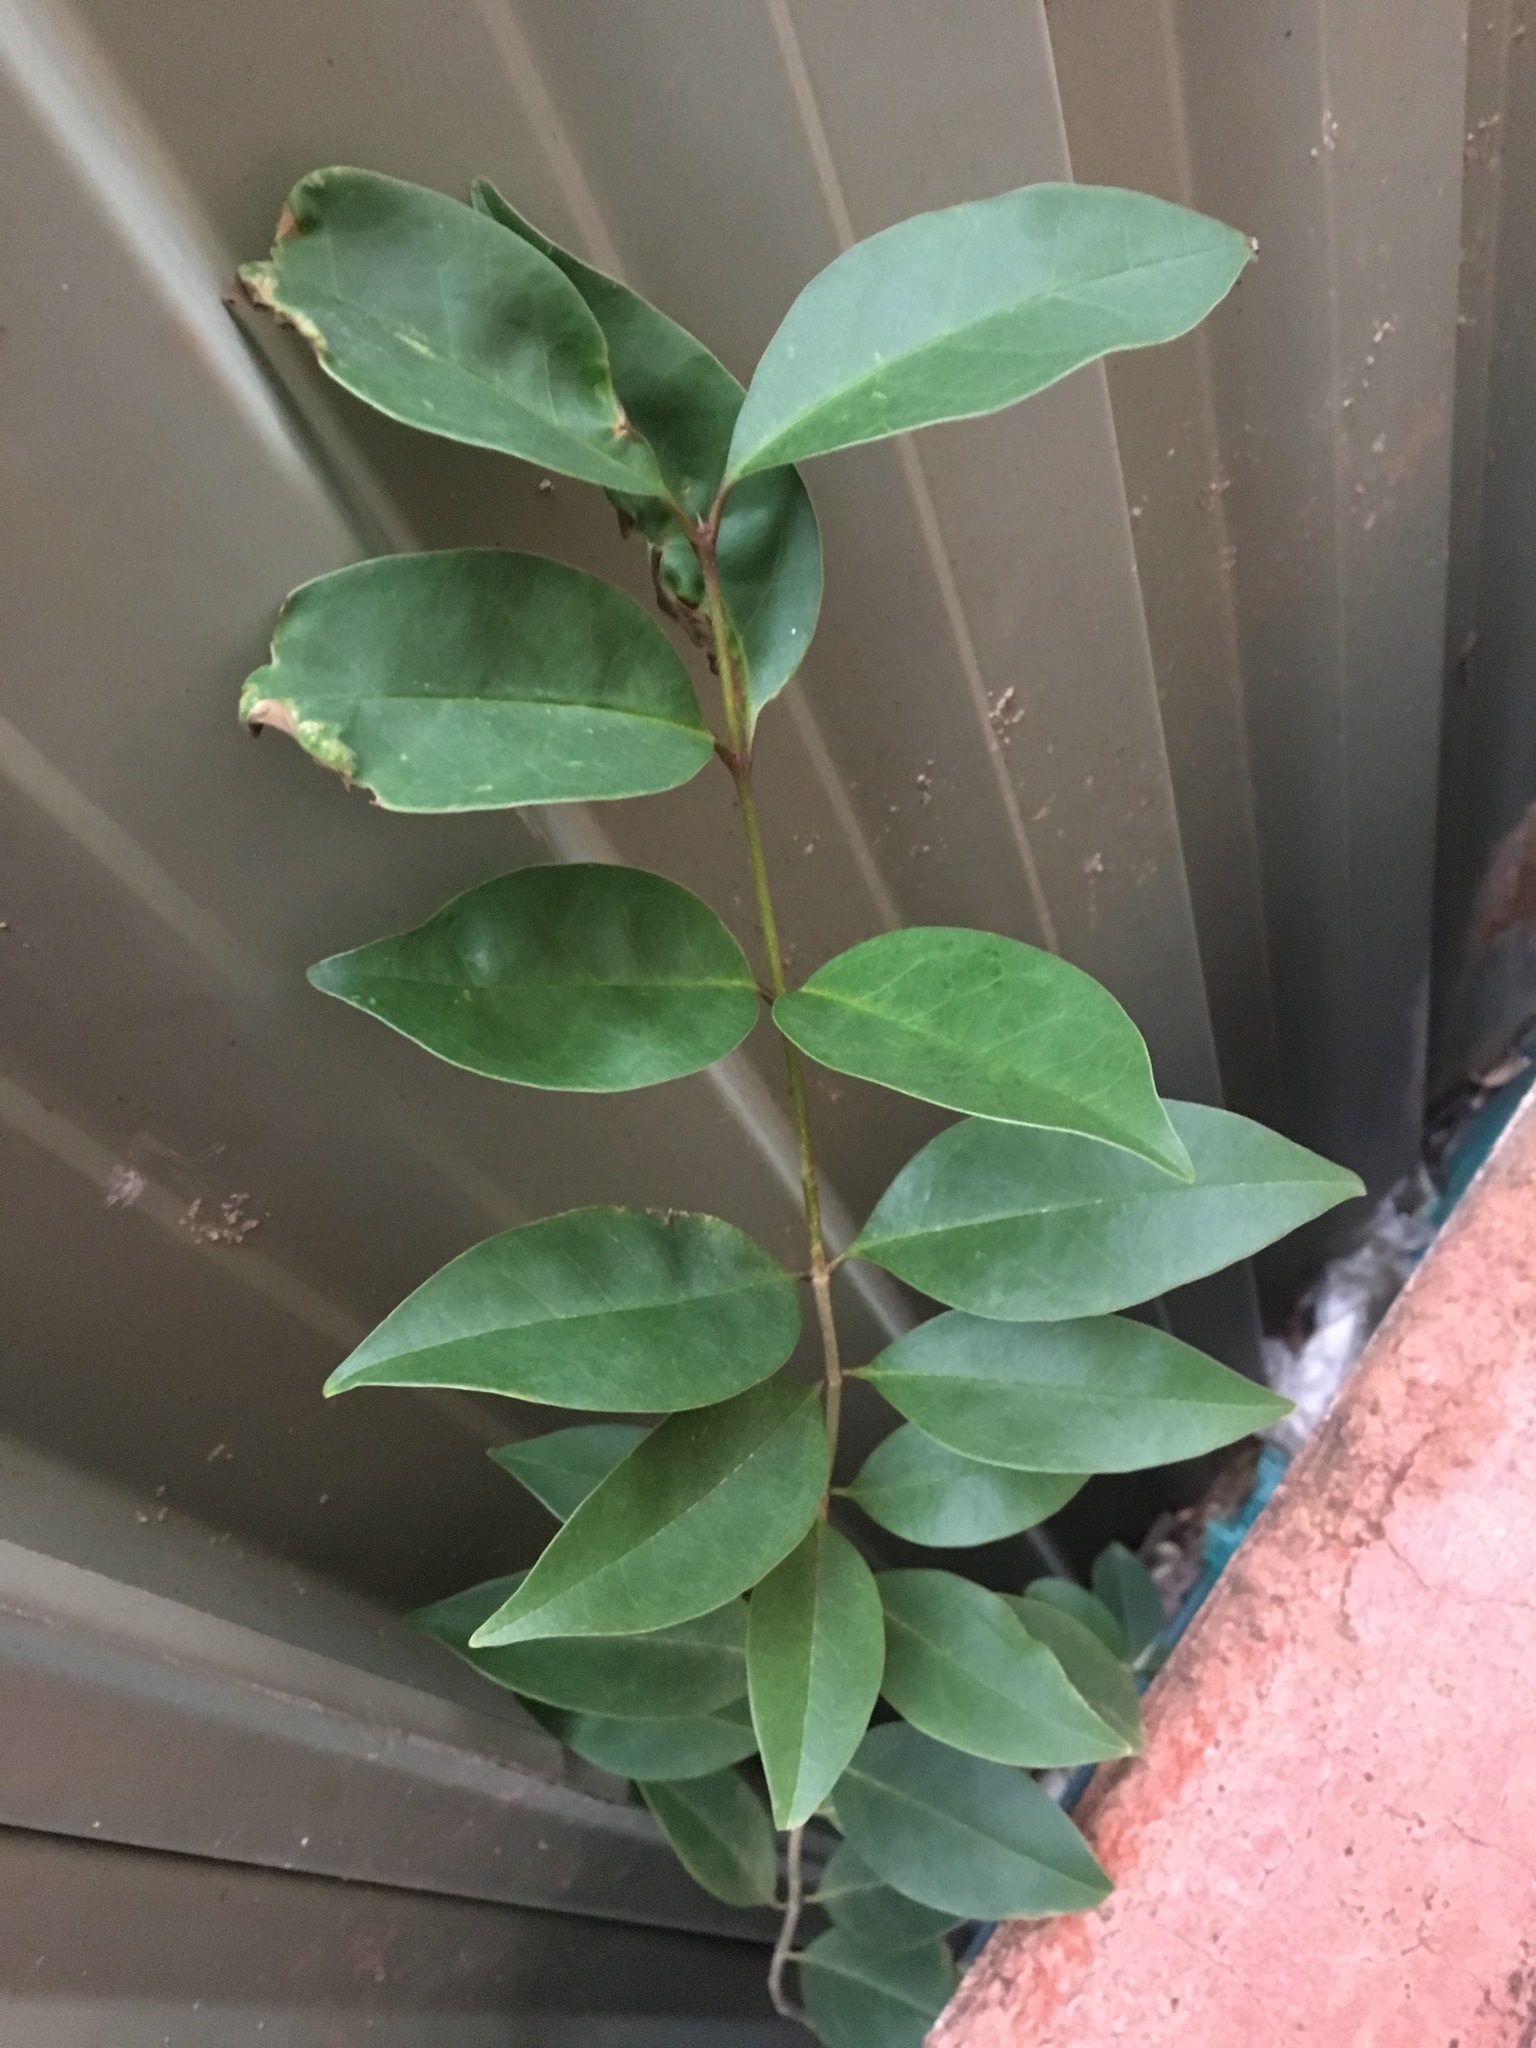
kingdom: Plantae
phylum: Tracheophyta
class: Magnoliopsida
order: Lamiales
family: Oleaceae
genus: Ligustrum
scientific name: Ligustrum lucidum
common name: Glossy privet
